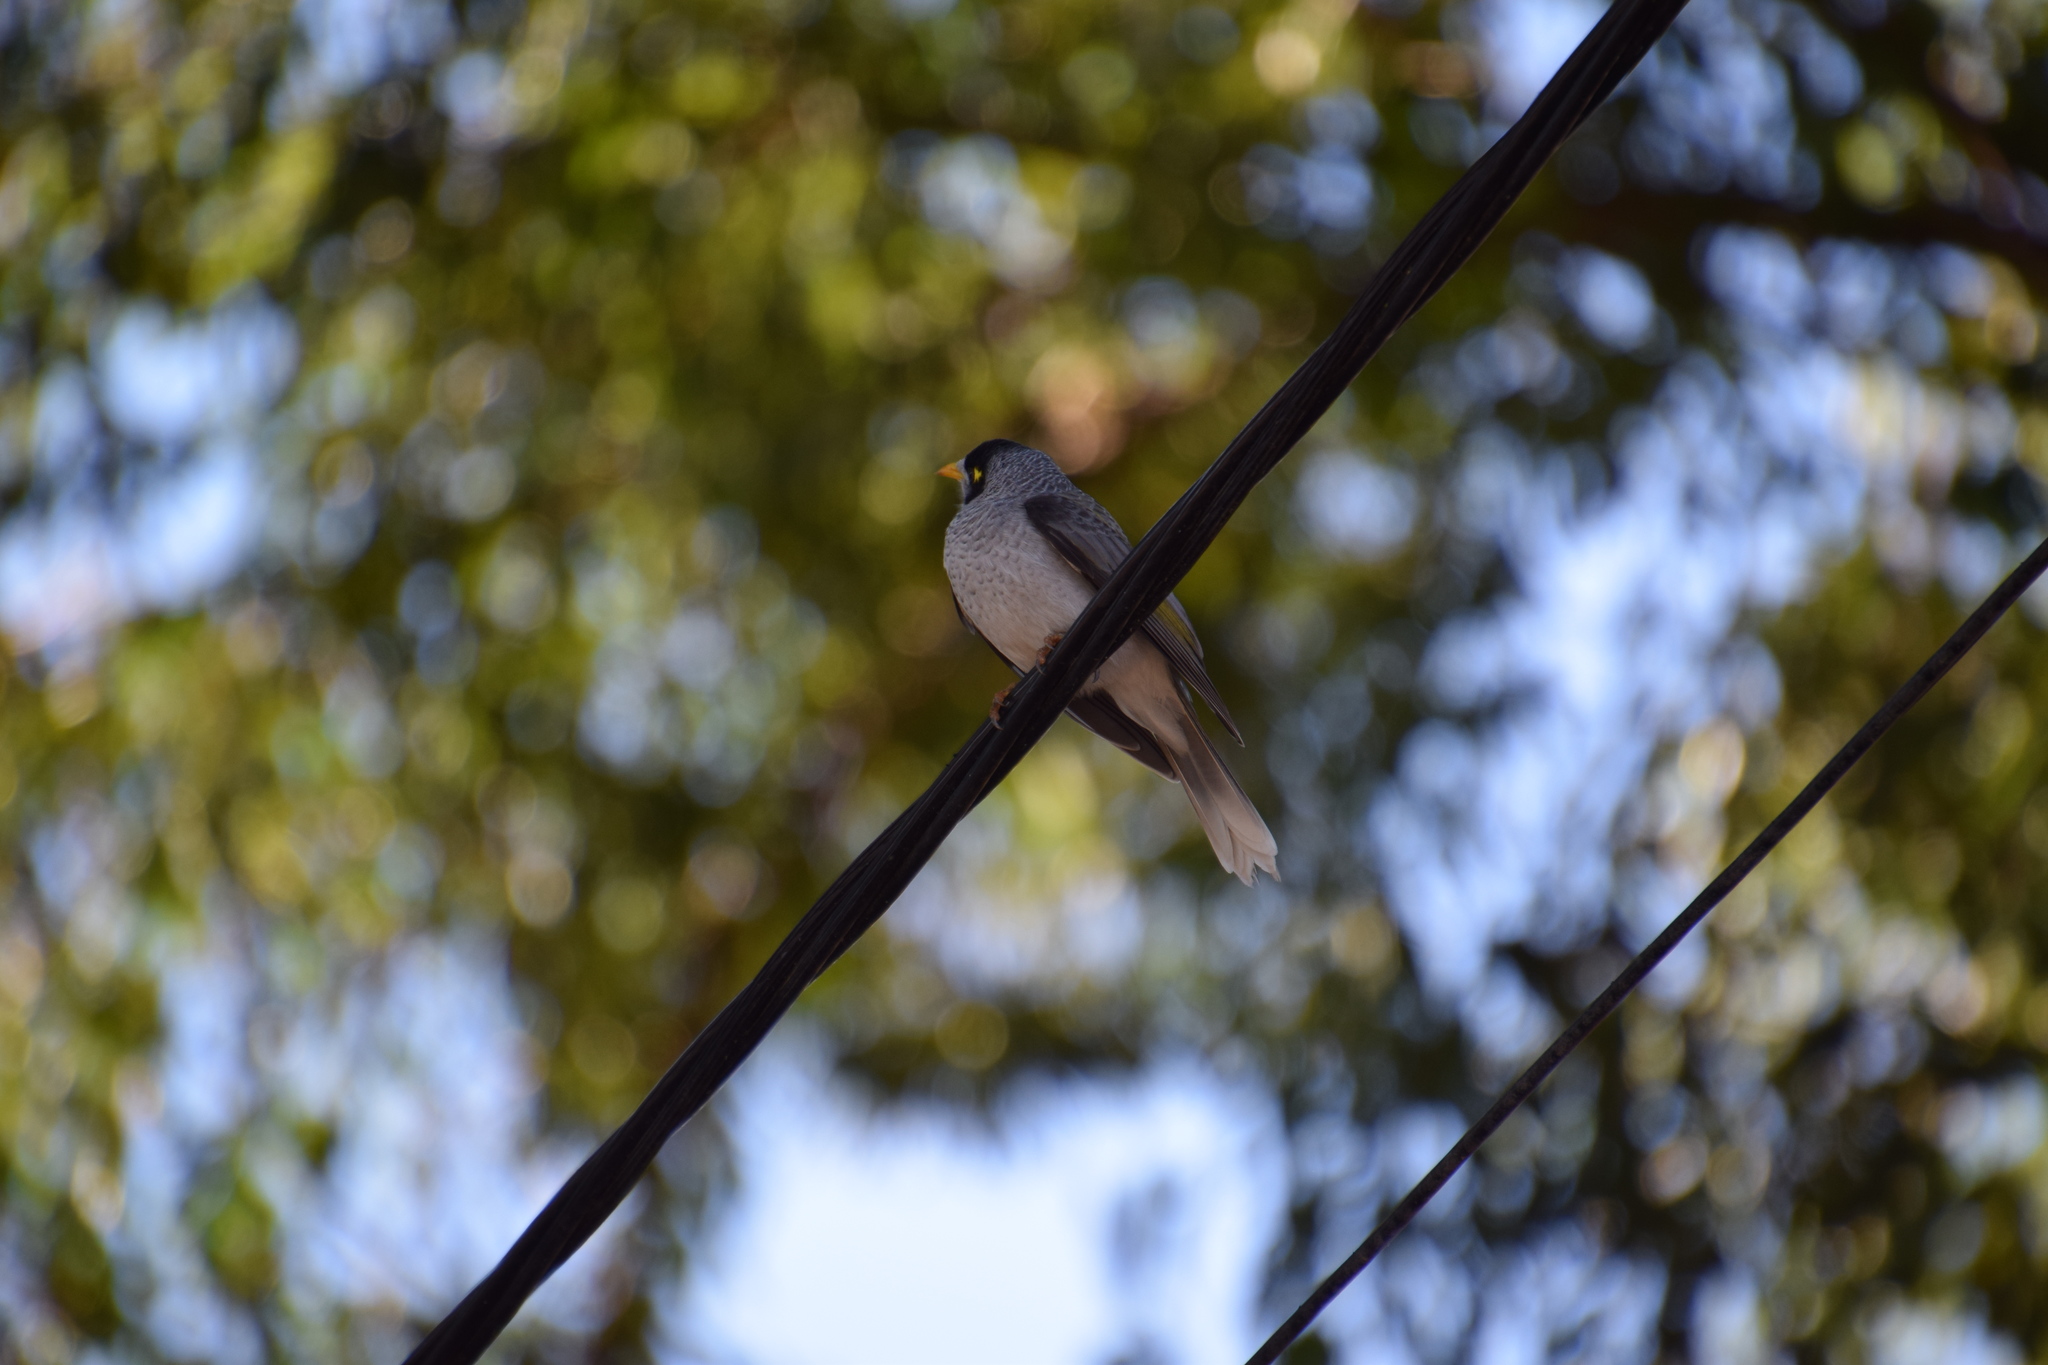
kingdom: Animalia
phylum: Chordata
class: Aves
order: Passeriformes
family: Meliphagidae
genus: Manorina
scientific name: Manorina melanocephala
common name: Noisy miner
